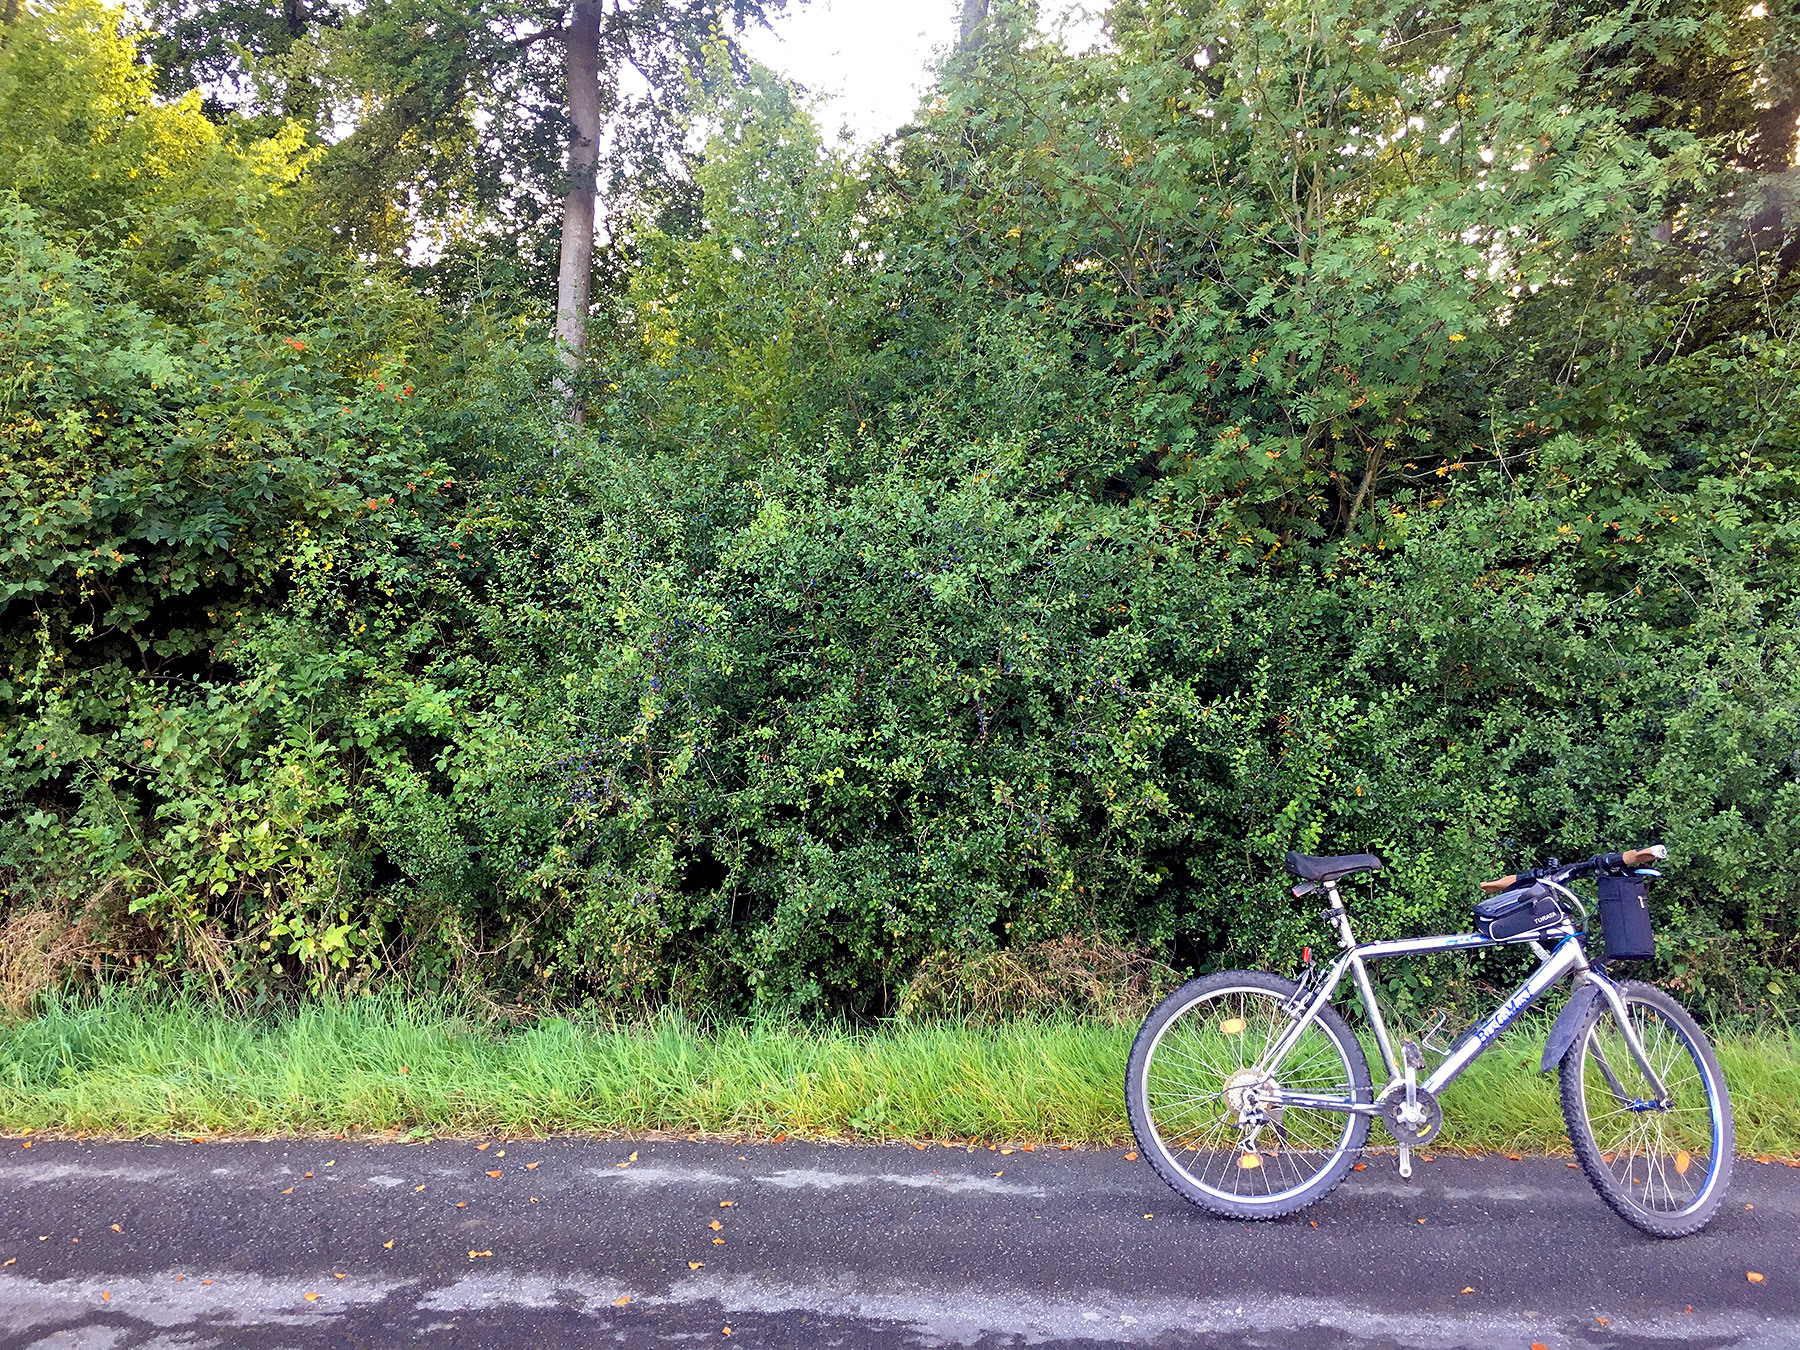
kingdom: Plantae
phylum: Tracheophyta
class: Magnoliopsida
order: Rosales
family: Rosaceae
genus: Prunus
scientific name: Prunus spinosa
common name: Blackthorn
